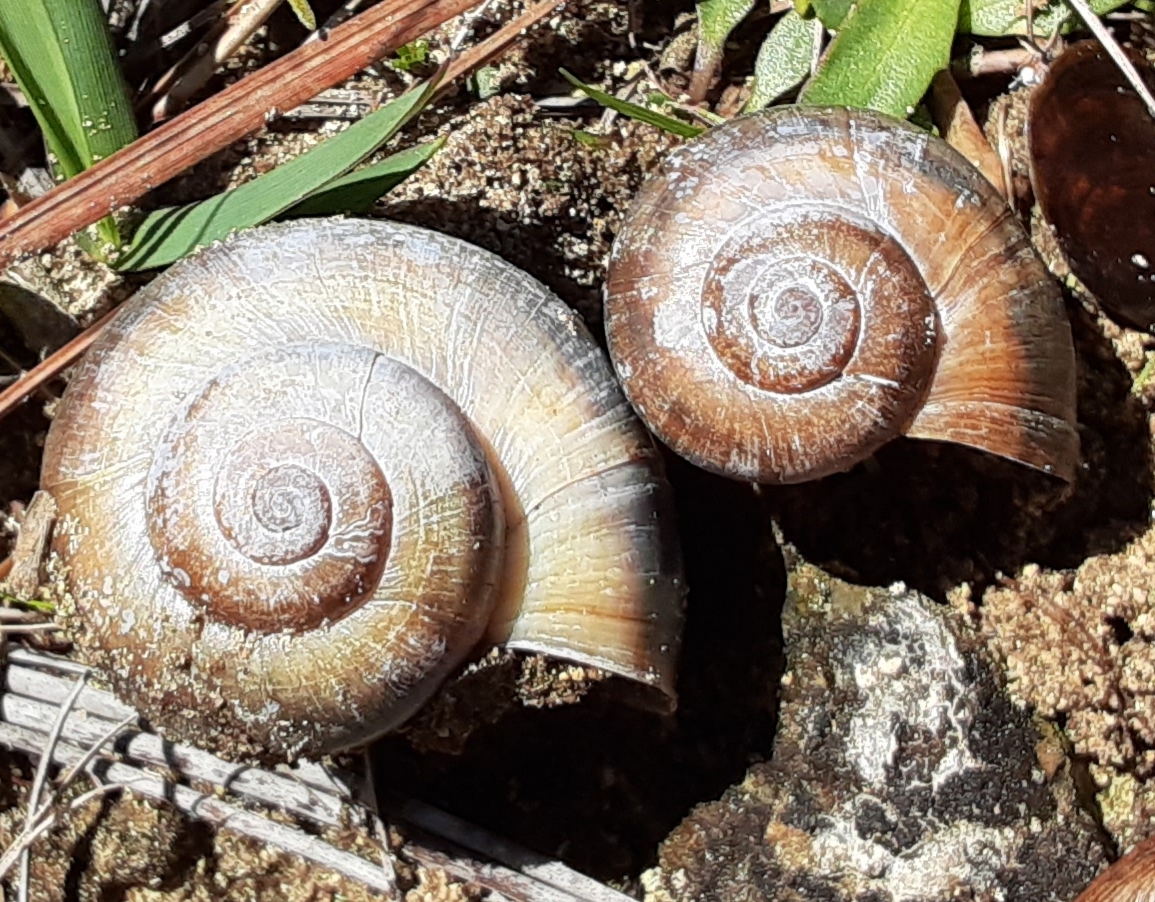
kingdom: Animalia
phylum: Mollusca
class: Gastropoda
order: Architaenioglossa
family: Ampullariidae
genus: Pomacea
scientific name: Pomacea paludosa
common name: Florida applesnail
